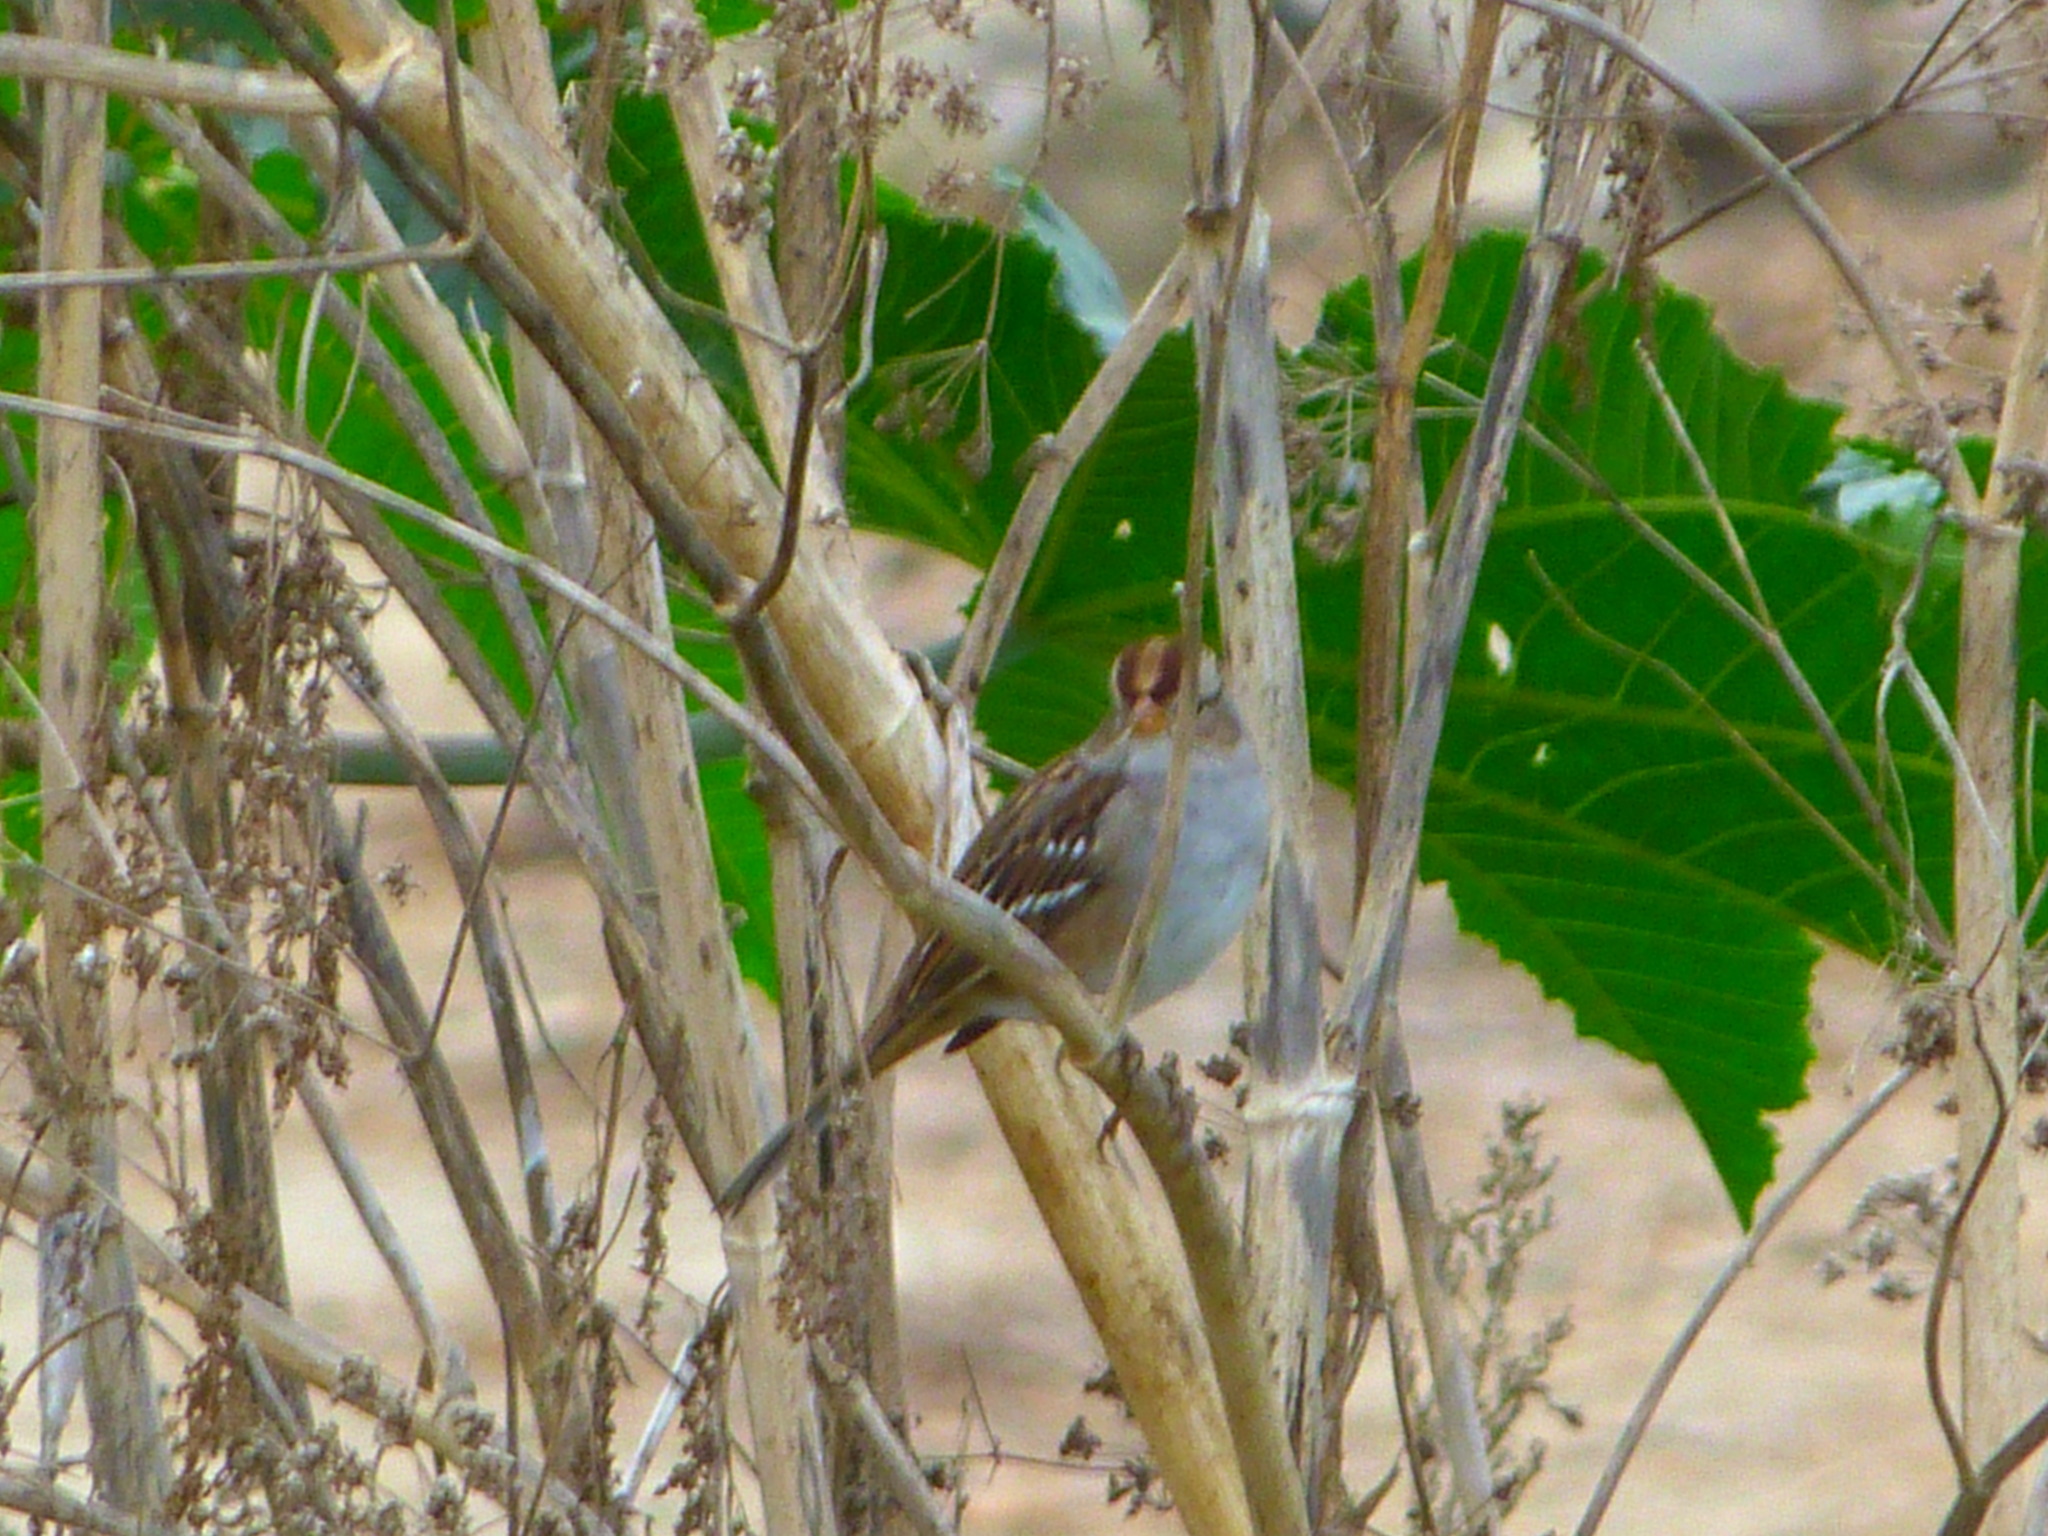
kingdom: Animalia
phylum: Chordata
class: Aves
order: Passeriformes
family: Passerellidae
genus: Zonotrichia
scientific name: Zonotrichia leucophrys
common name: White-crowned sparrow
